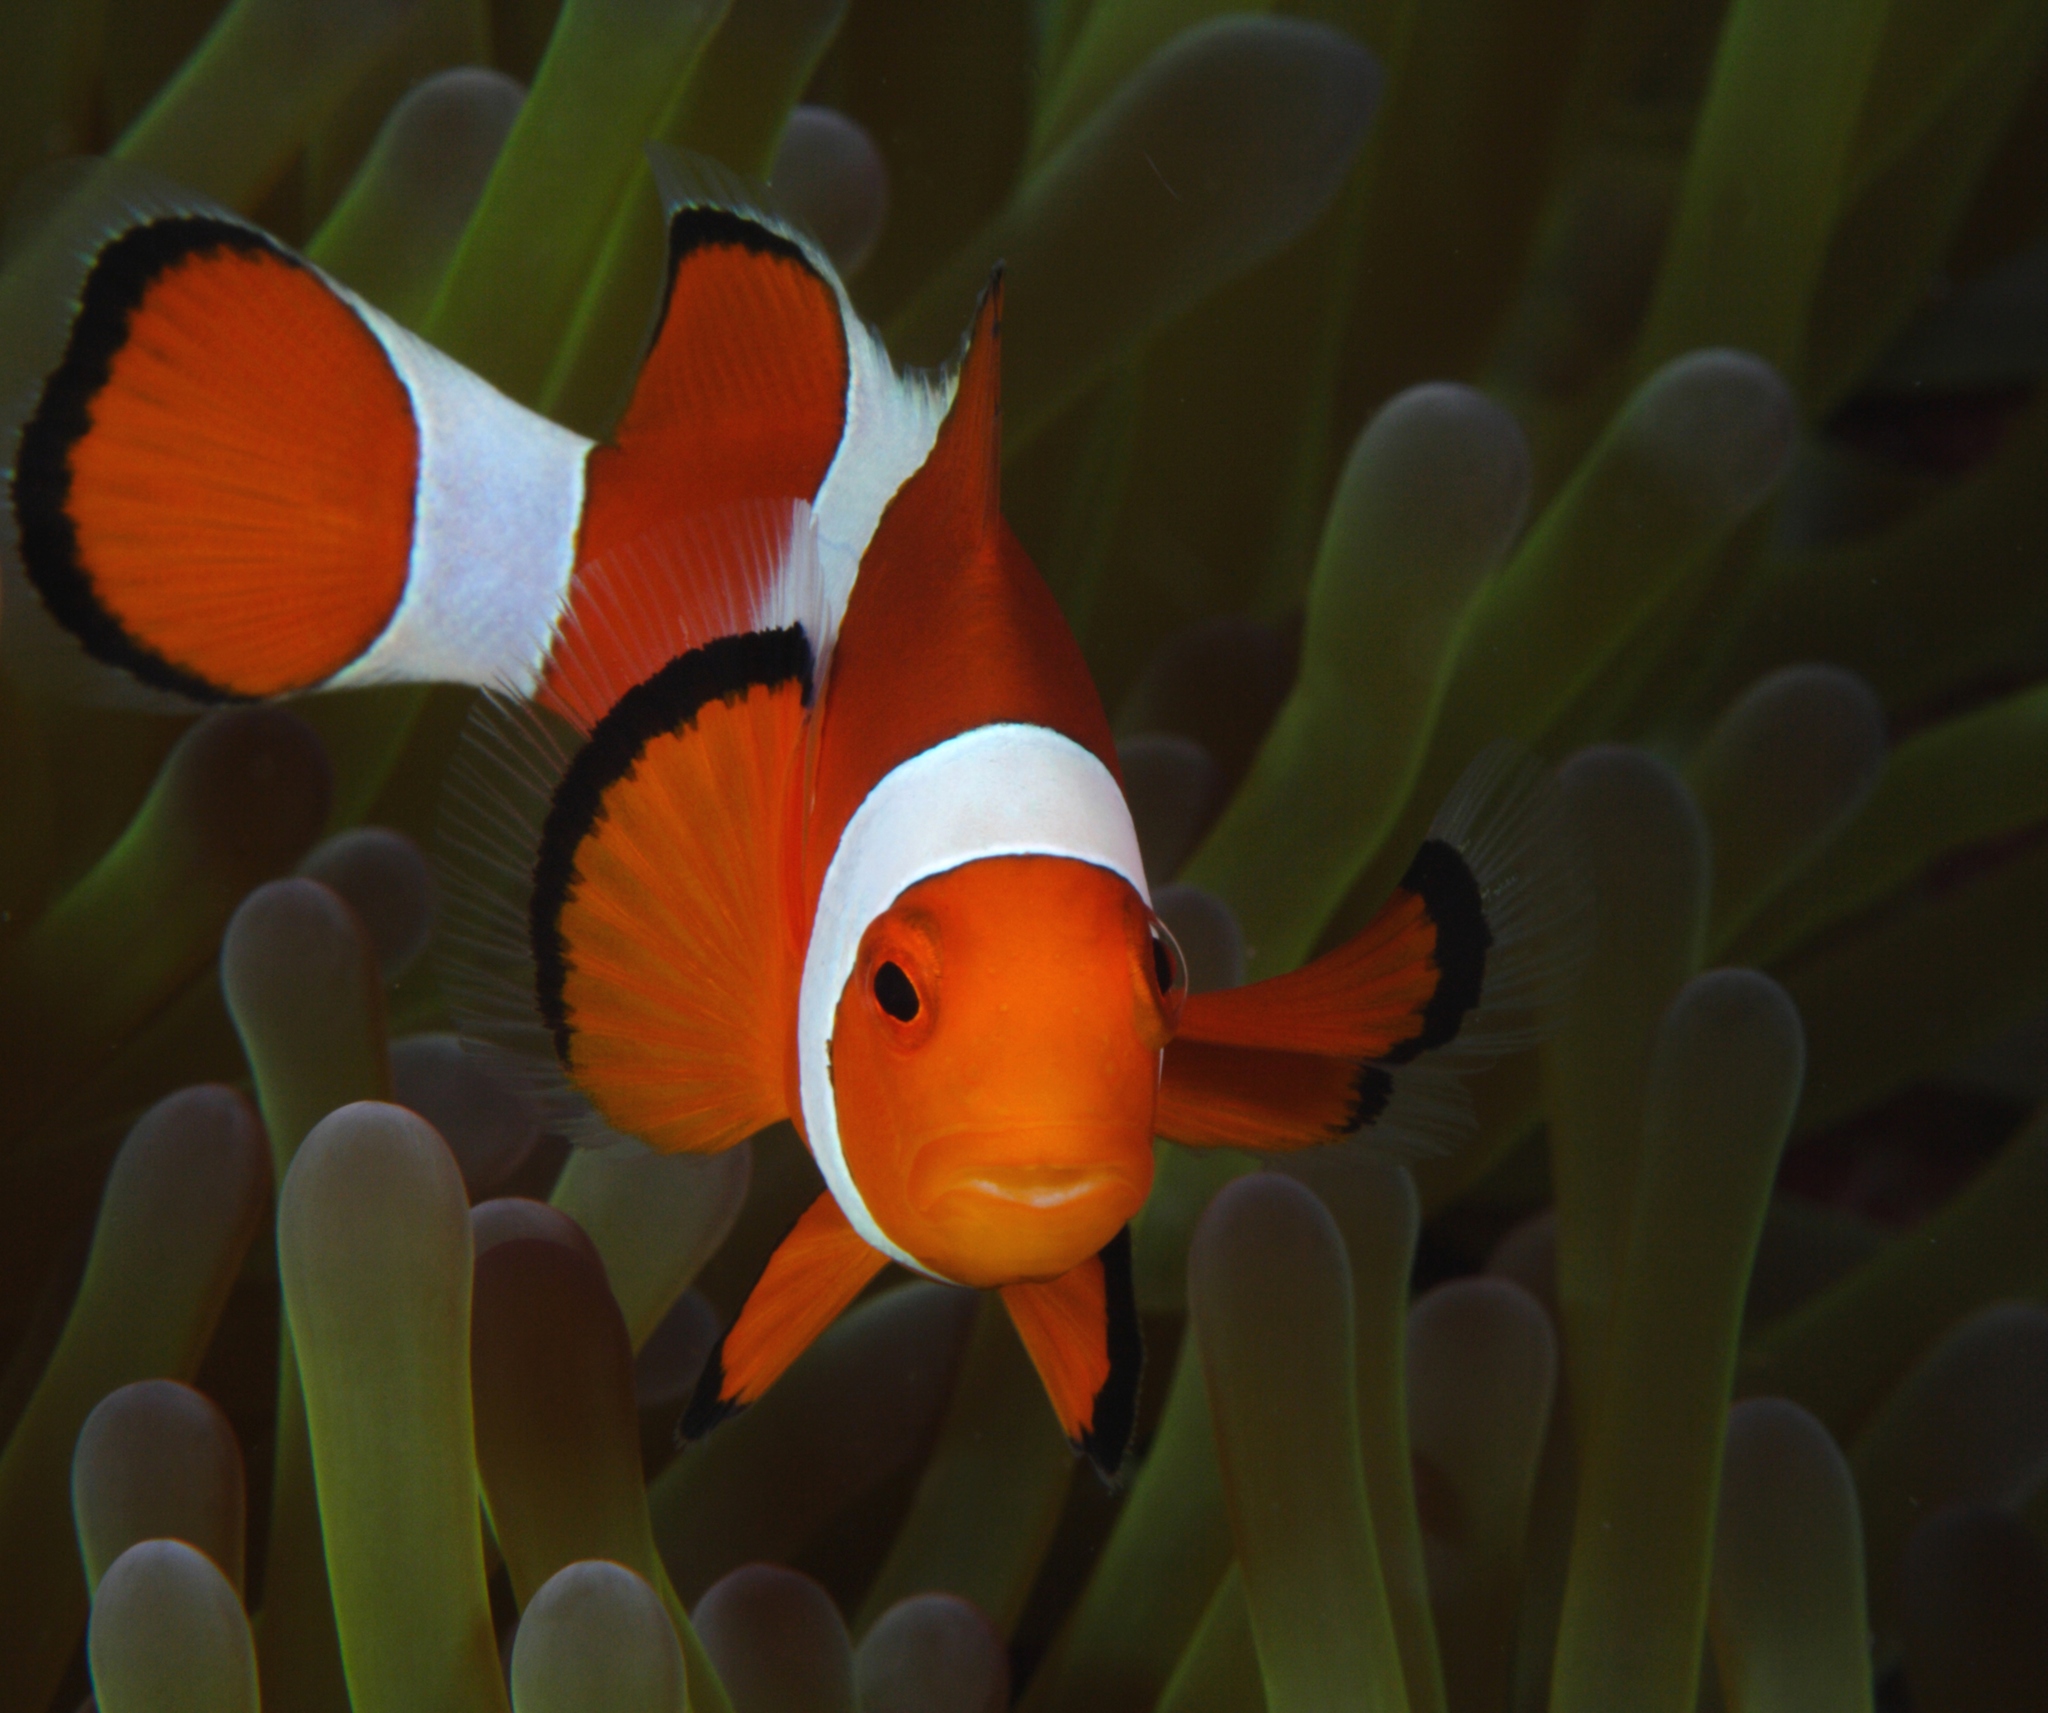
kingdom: Animalia
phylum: Chordata
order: Perciformes
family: Pomacentridae
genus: Amphiprion
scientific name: Amphiprion ocellaris
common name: Clown anemonefish
